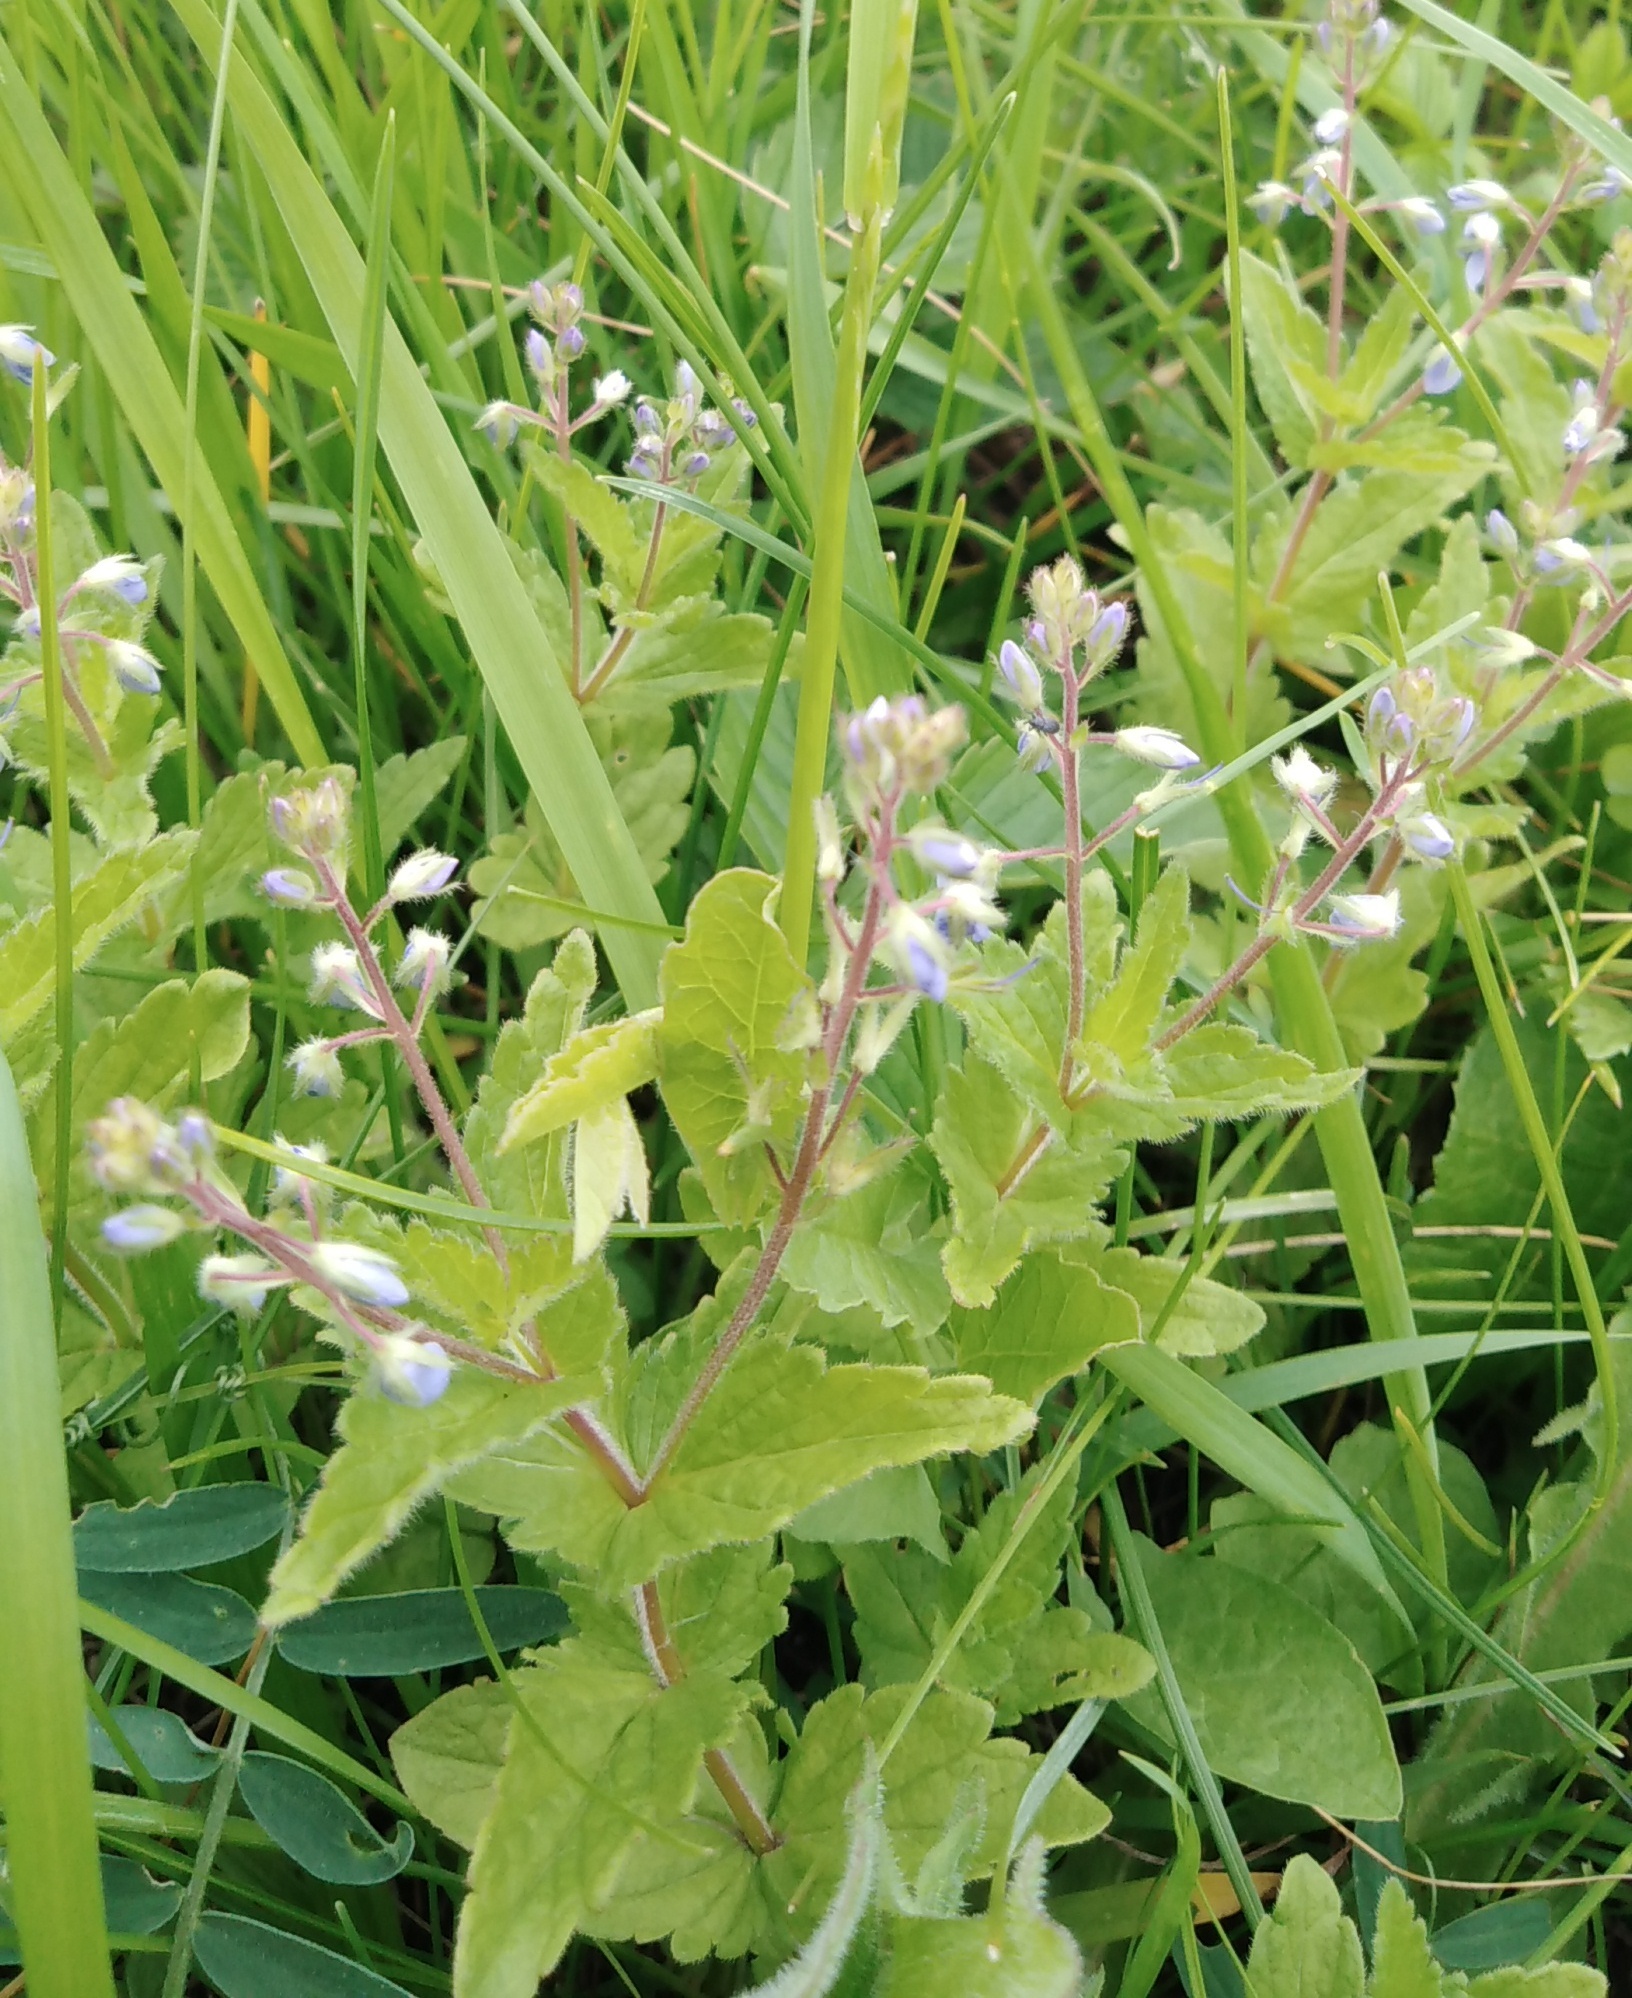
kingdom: Plantae
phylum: Tracheophyta
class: Magnoliopsida
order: Lamiales
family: Plantaginaceae
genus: Veronica
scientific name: Veronica chamaedrys
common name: Germander speedwell
